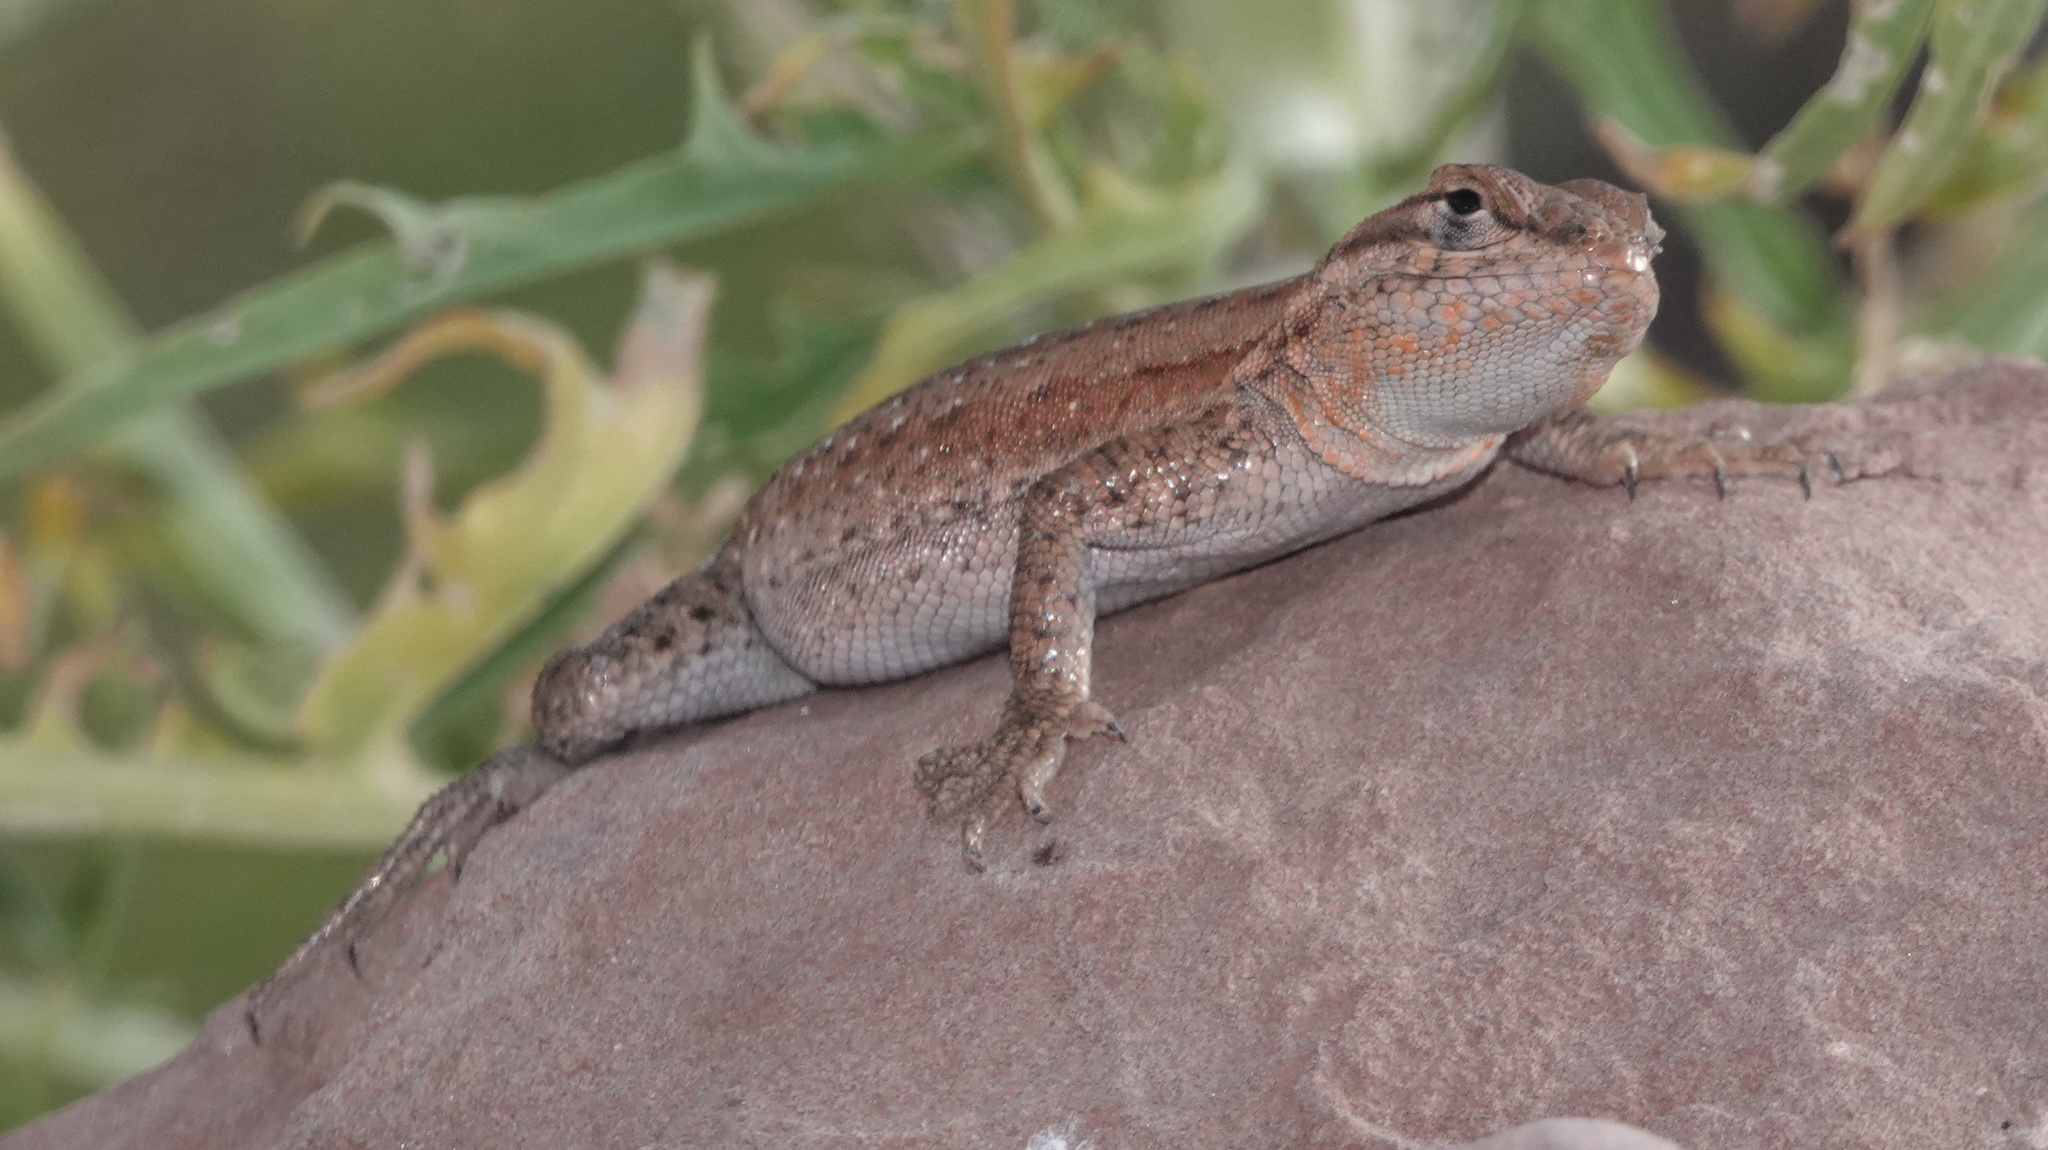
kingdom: Animalia
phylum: Chordata
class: Squamata
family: Phrynosomatidae
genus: Uta
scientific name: Uta stansburiana
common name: Side-blotched lizard
